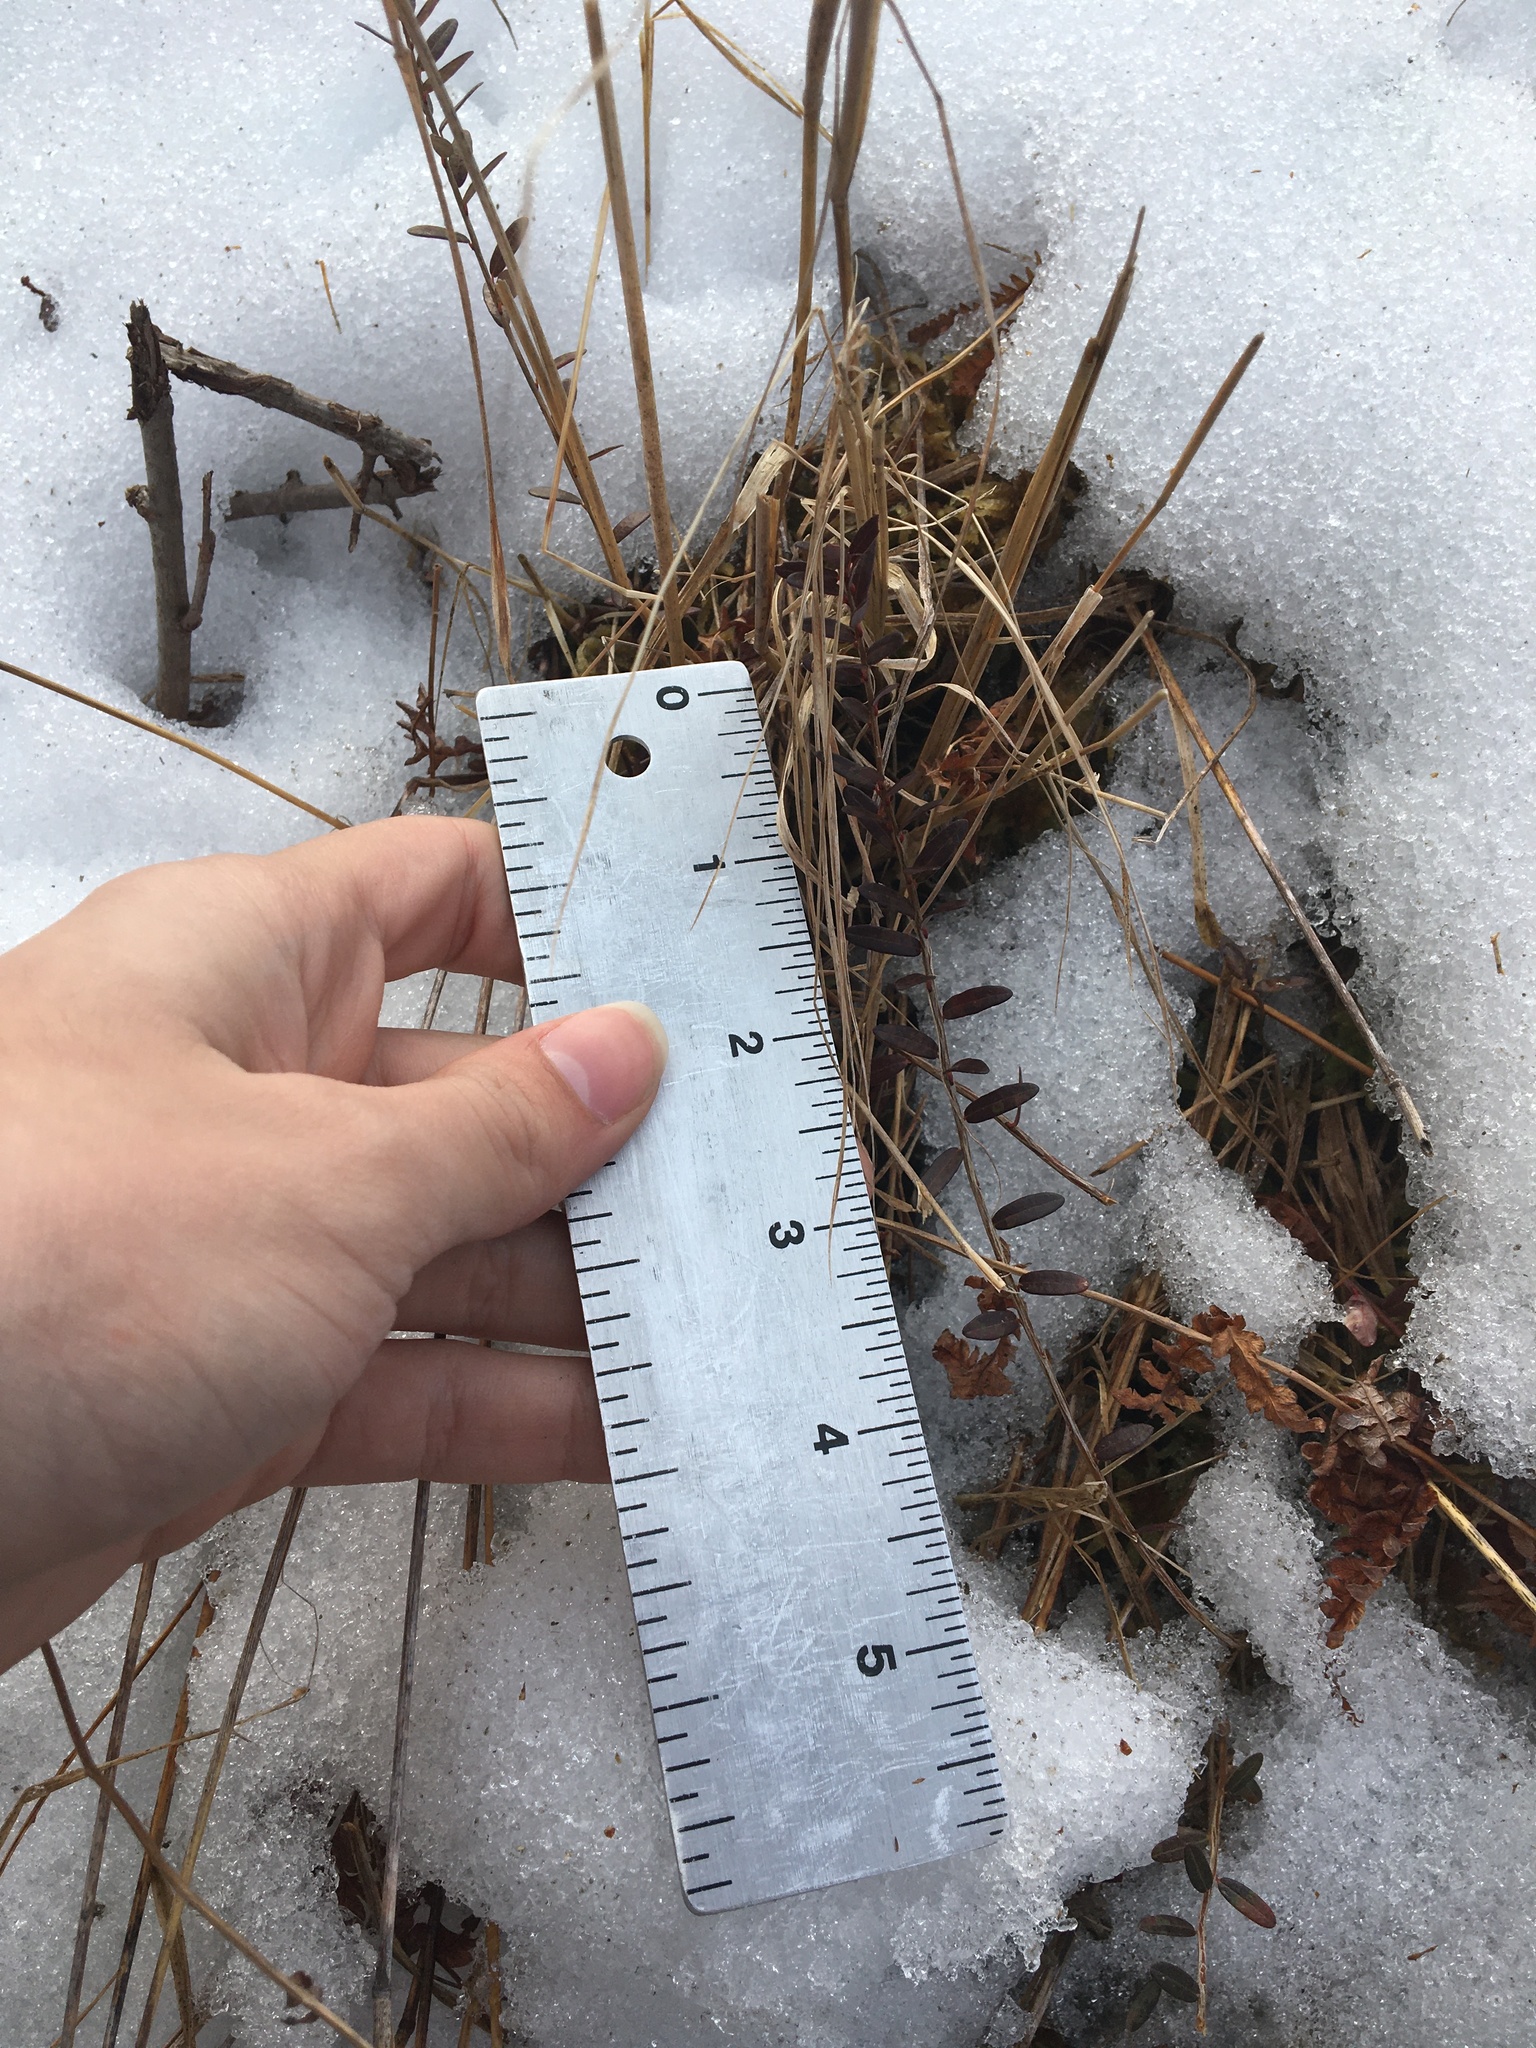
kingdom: Plantae
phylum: Tracheophyta
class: Magnoliopsida
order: Ericales
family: Ericaceae
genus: Vaccinium
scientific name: Vaccinium macrocarpon
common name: American cranberry
